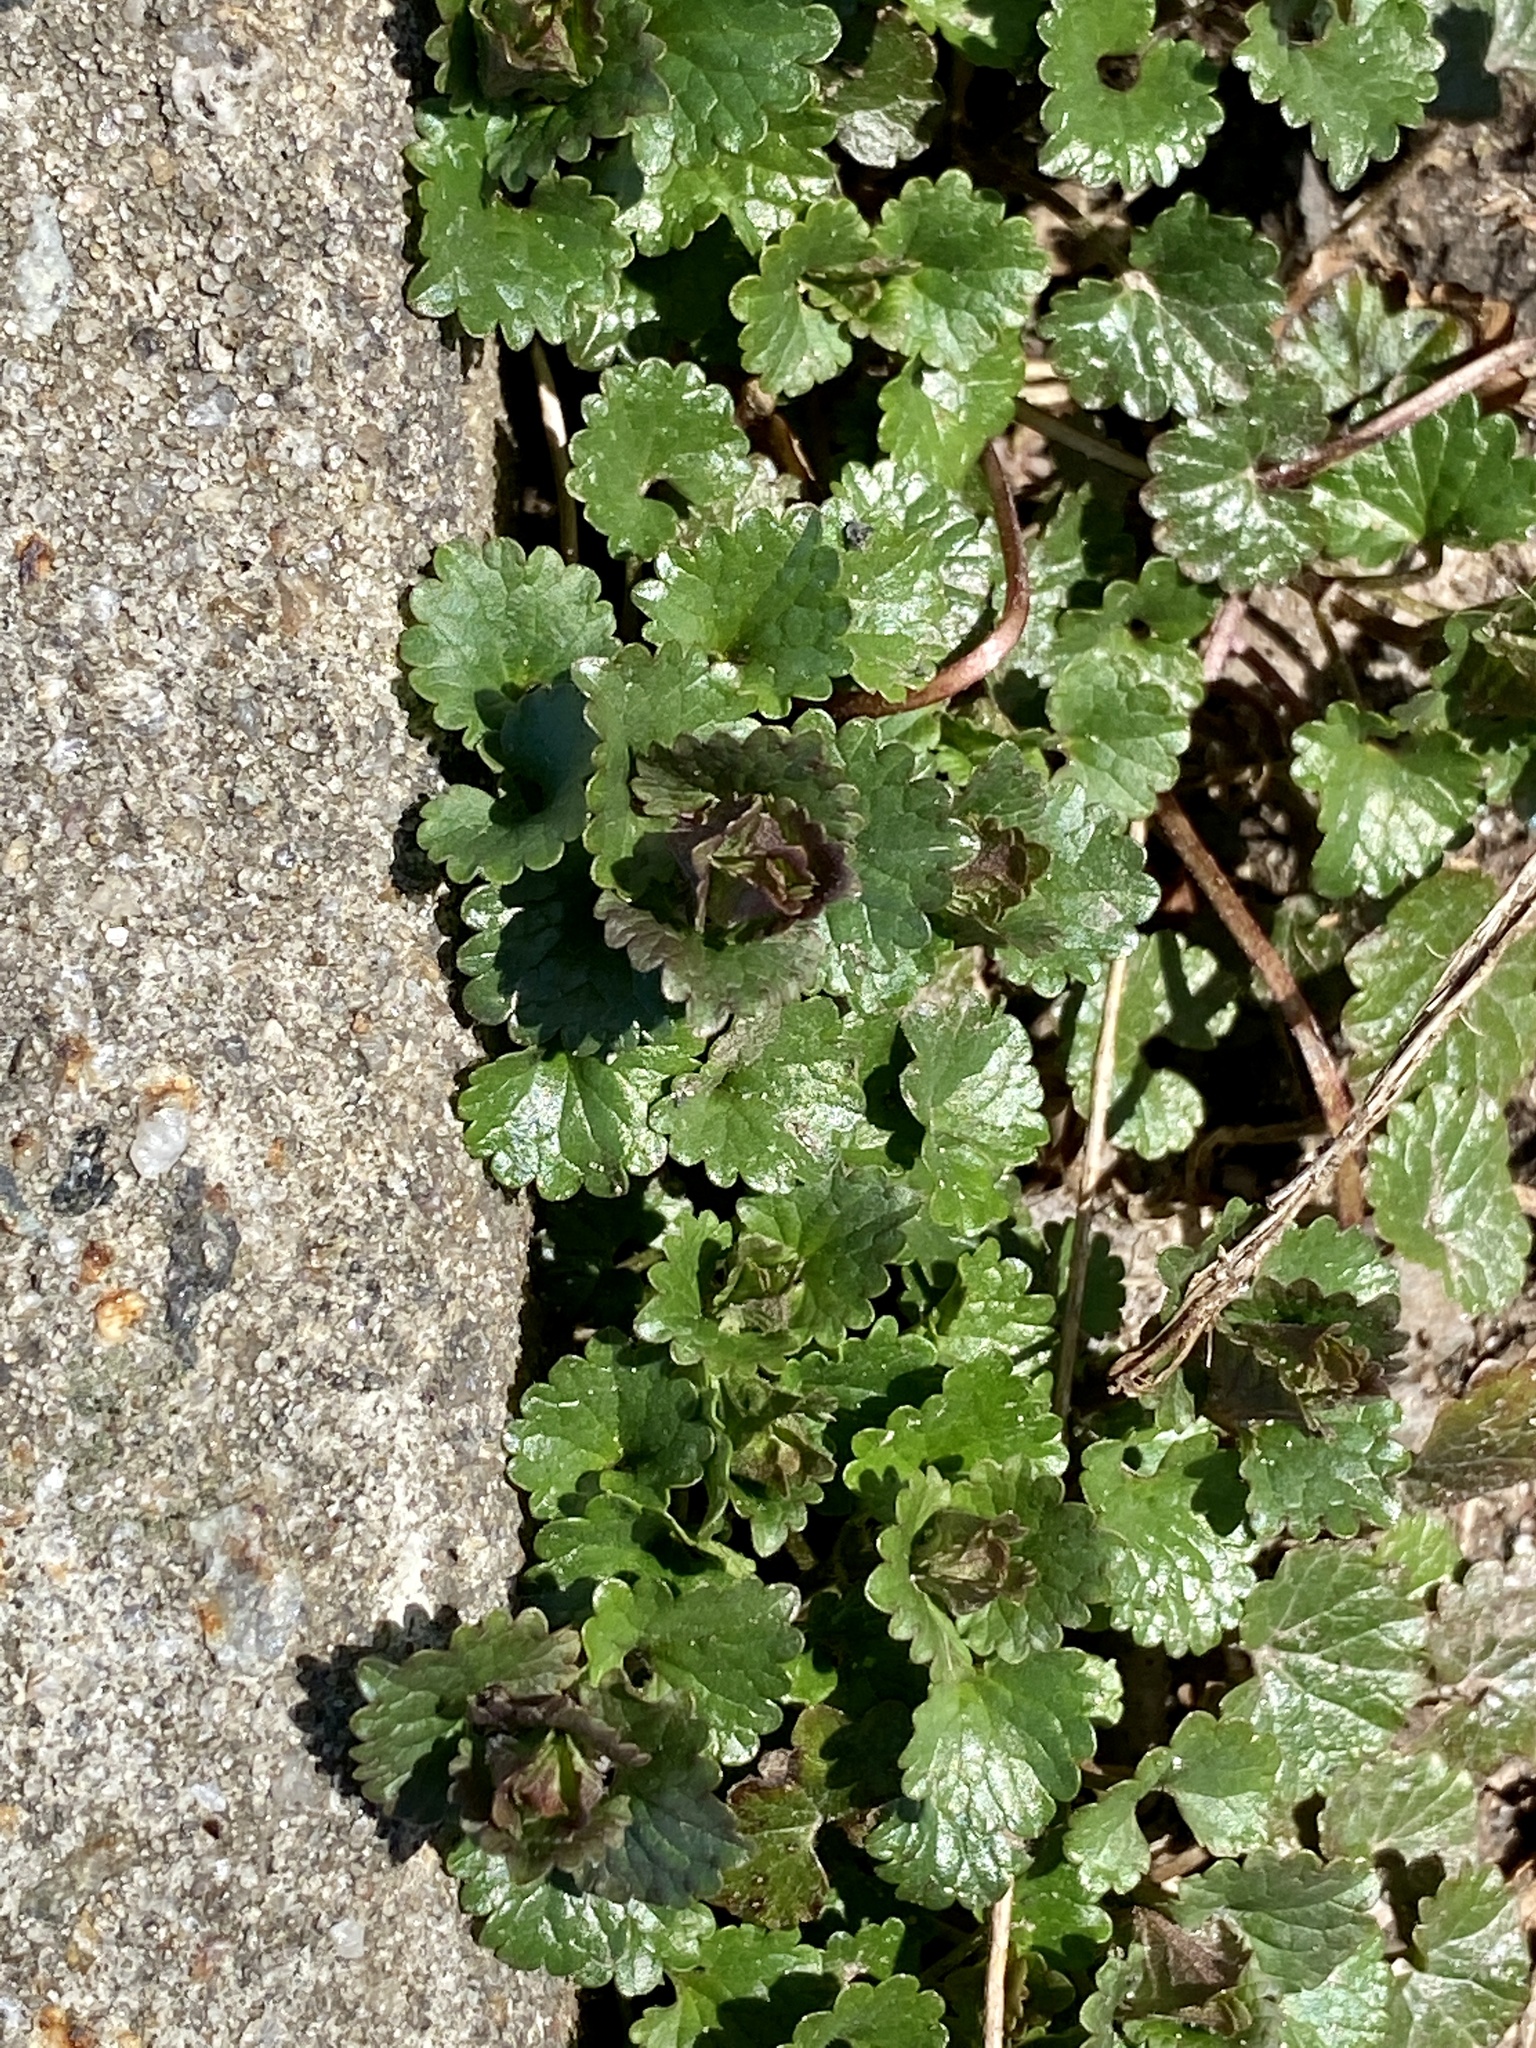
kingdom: Plantae
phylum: Tracheophyta
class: Magnoliopsida
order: Lamiales
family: Lamiaceae
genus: Glechoma
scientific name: Glechoma hederacea
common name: Ground ivy
